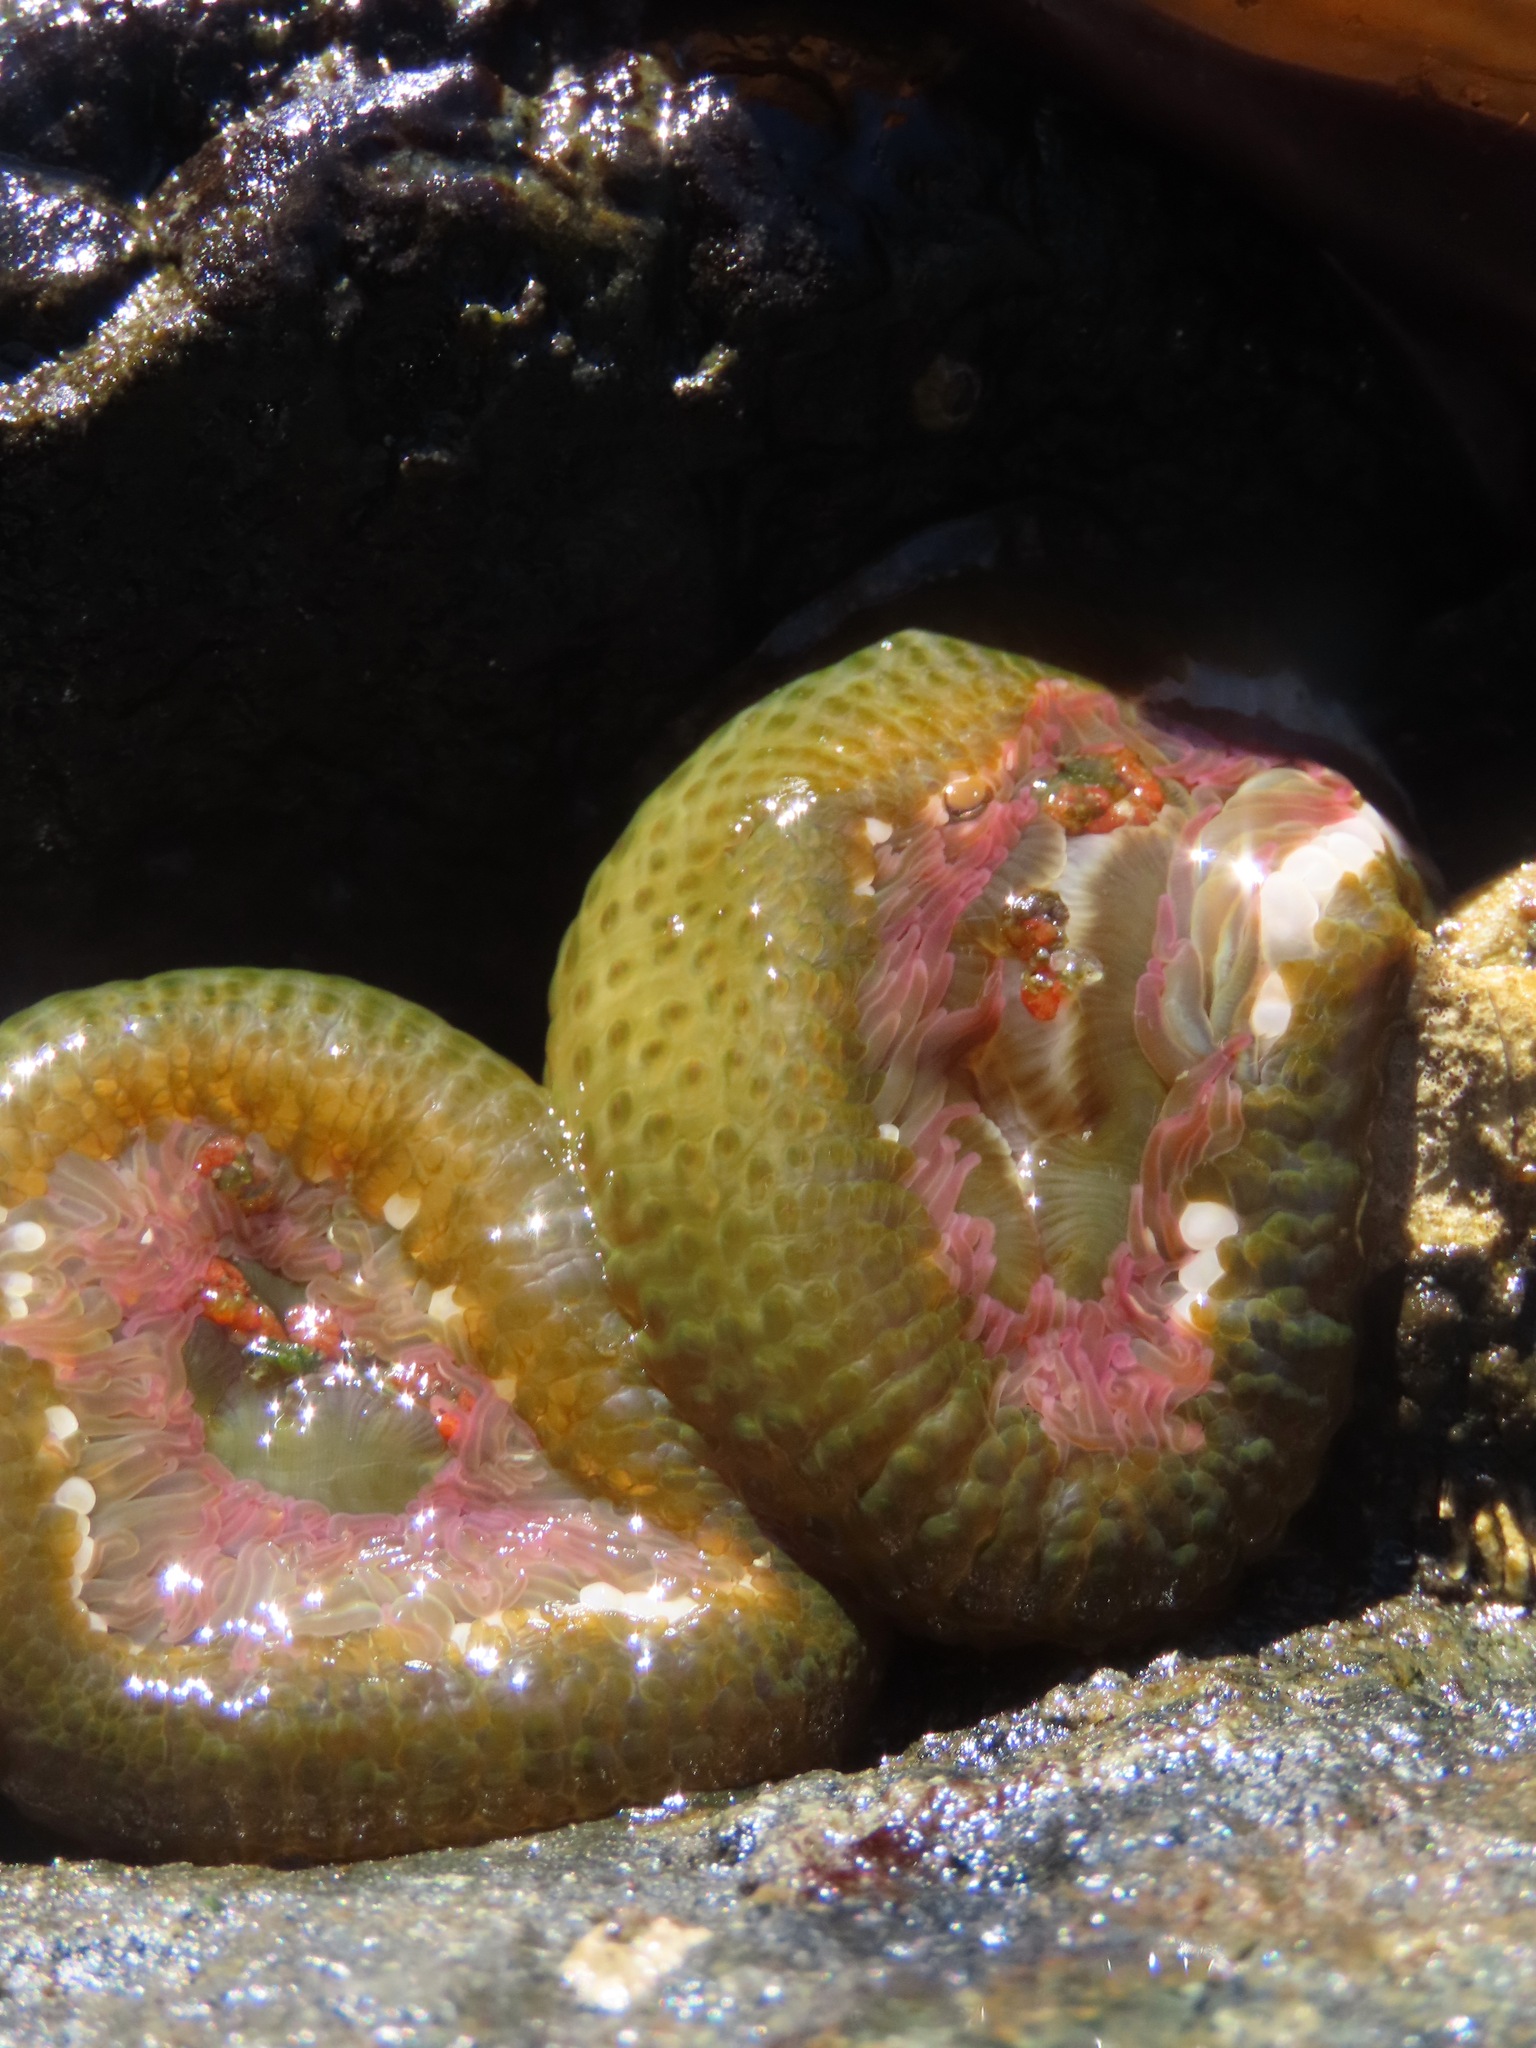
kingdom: Animalia
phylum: Cnidaria
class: Anthozoa
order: Actiniaria
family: Actiniidae
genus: Anthopleura
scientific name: Anthopleura elegantissima
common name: Clonal anemone
